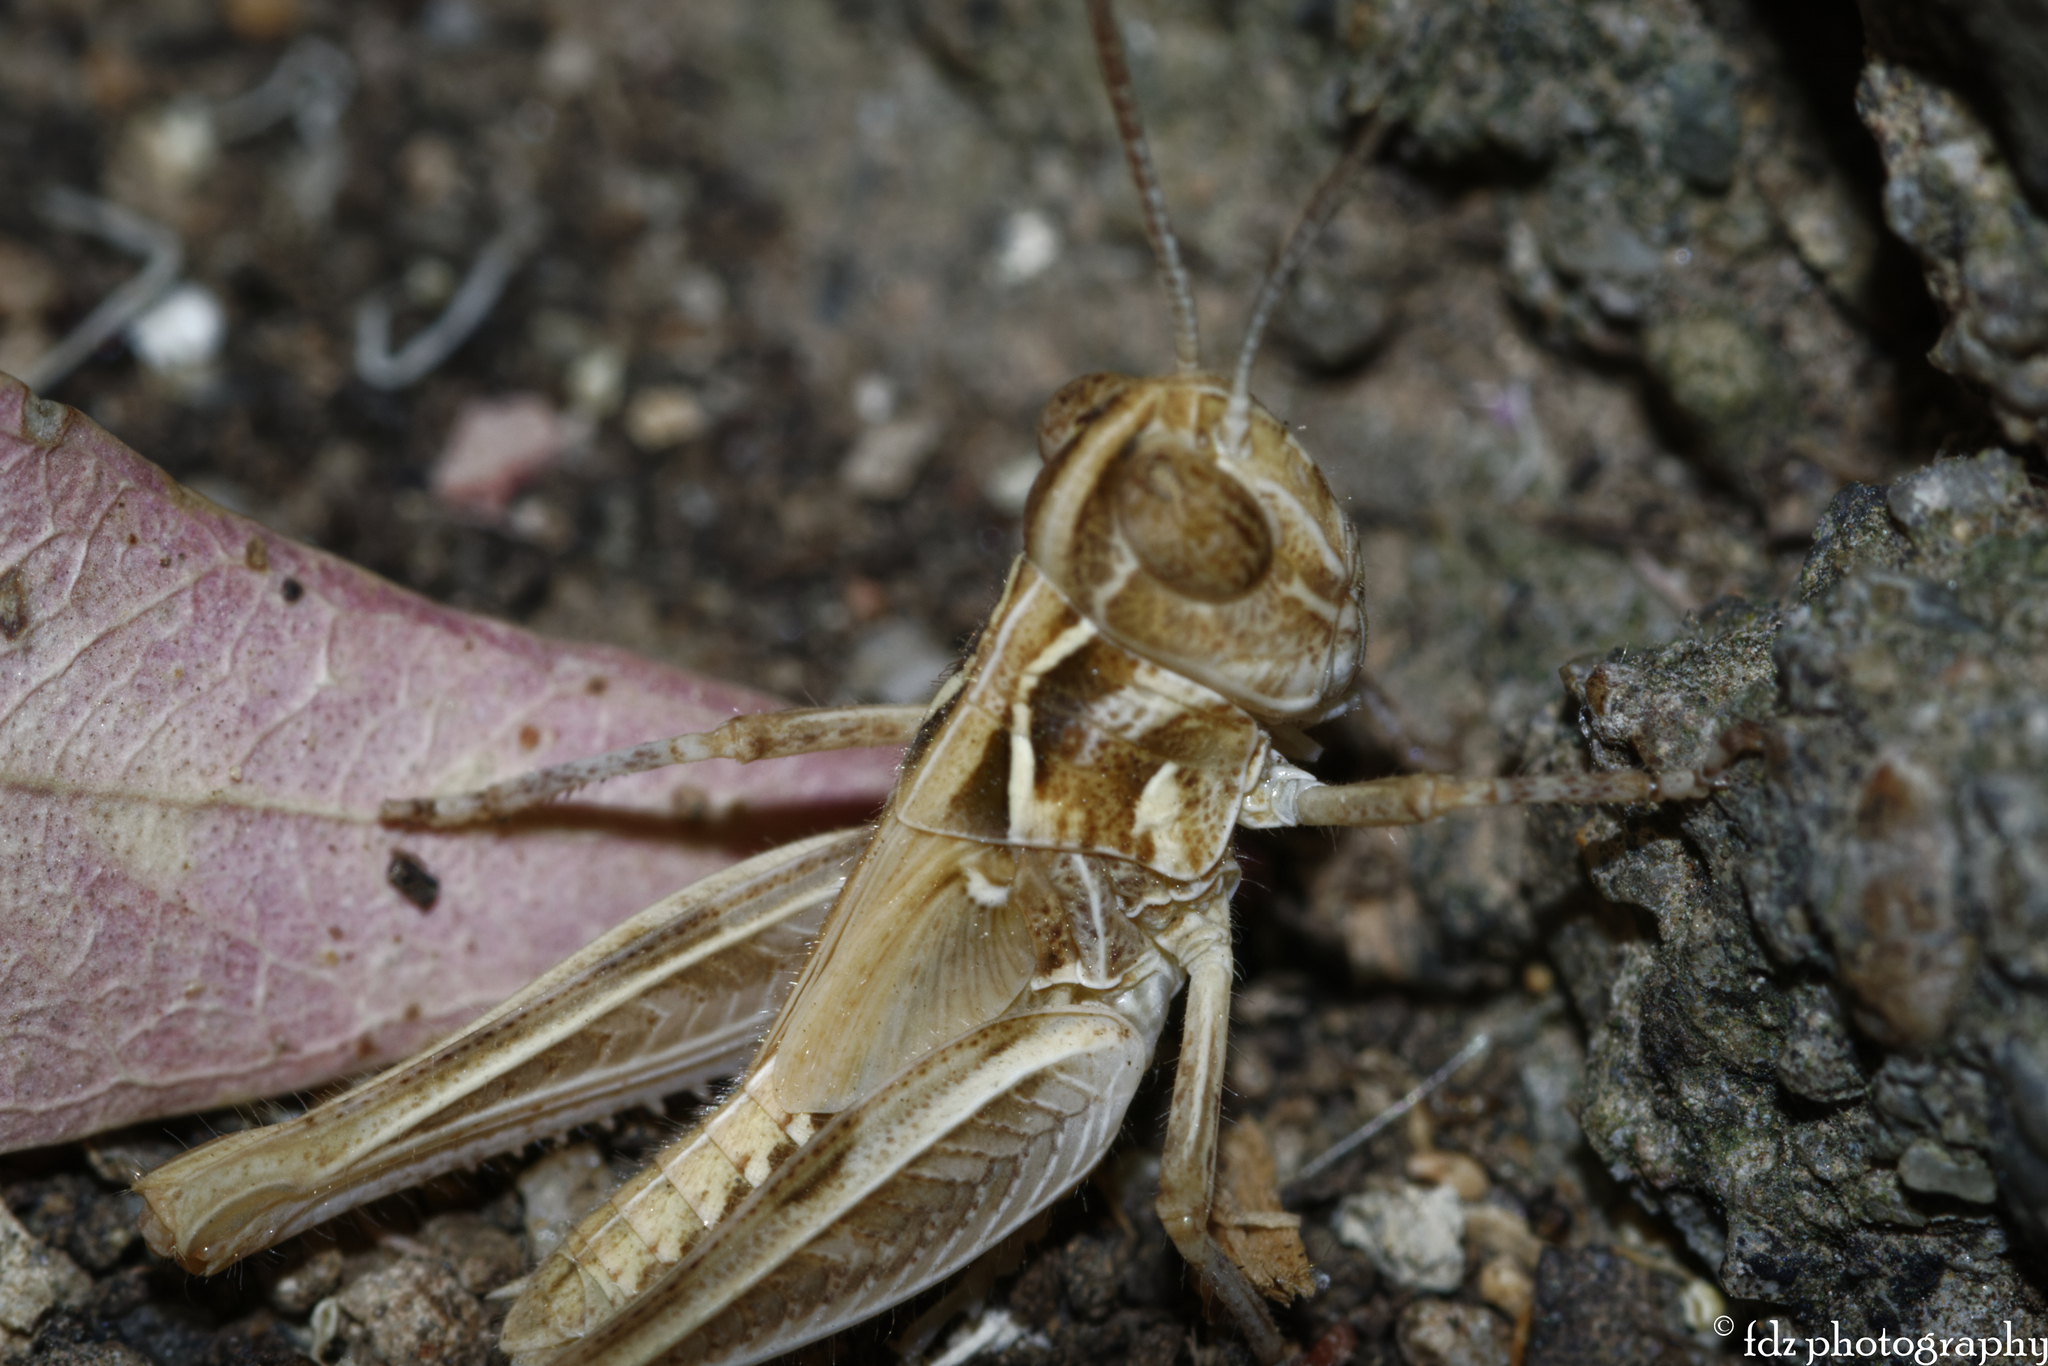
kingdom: Animalia
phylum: Arthropoda
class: Insecta
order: Orthoptera
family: Acrididae
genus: Dociostaurus
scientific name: Dociostaurus jagoi
